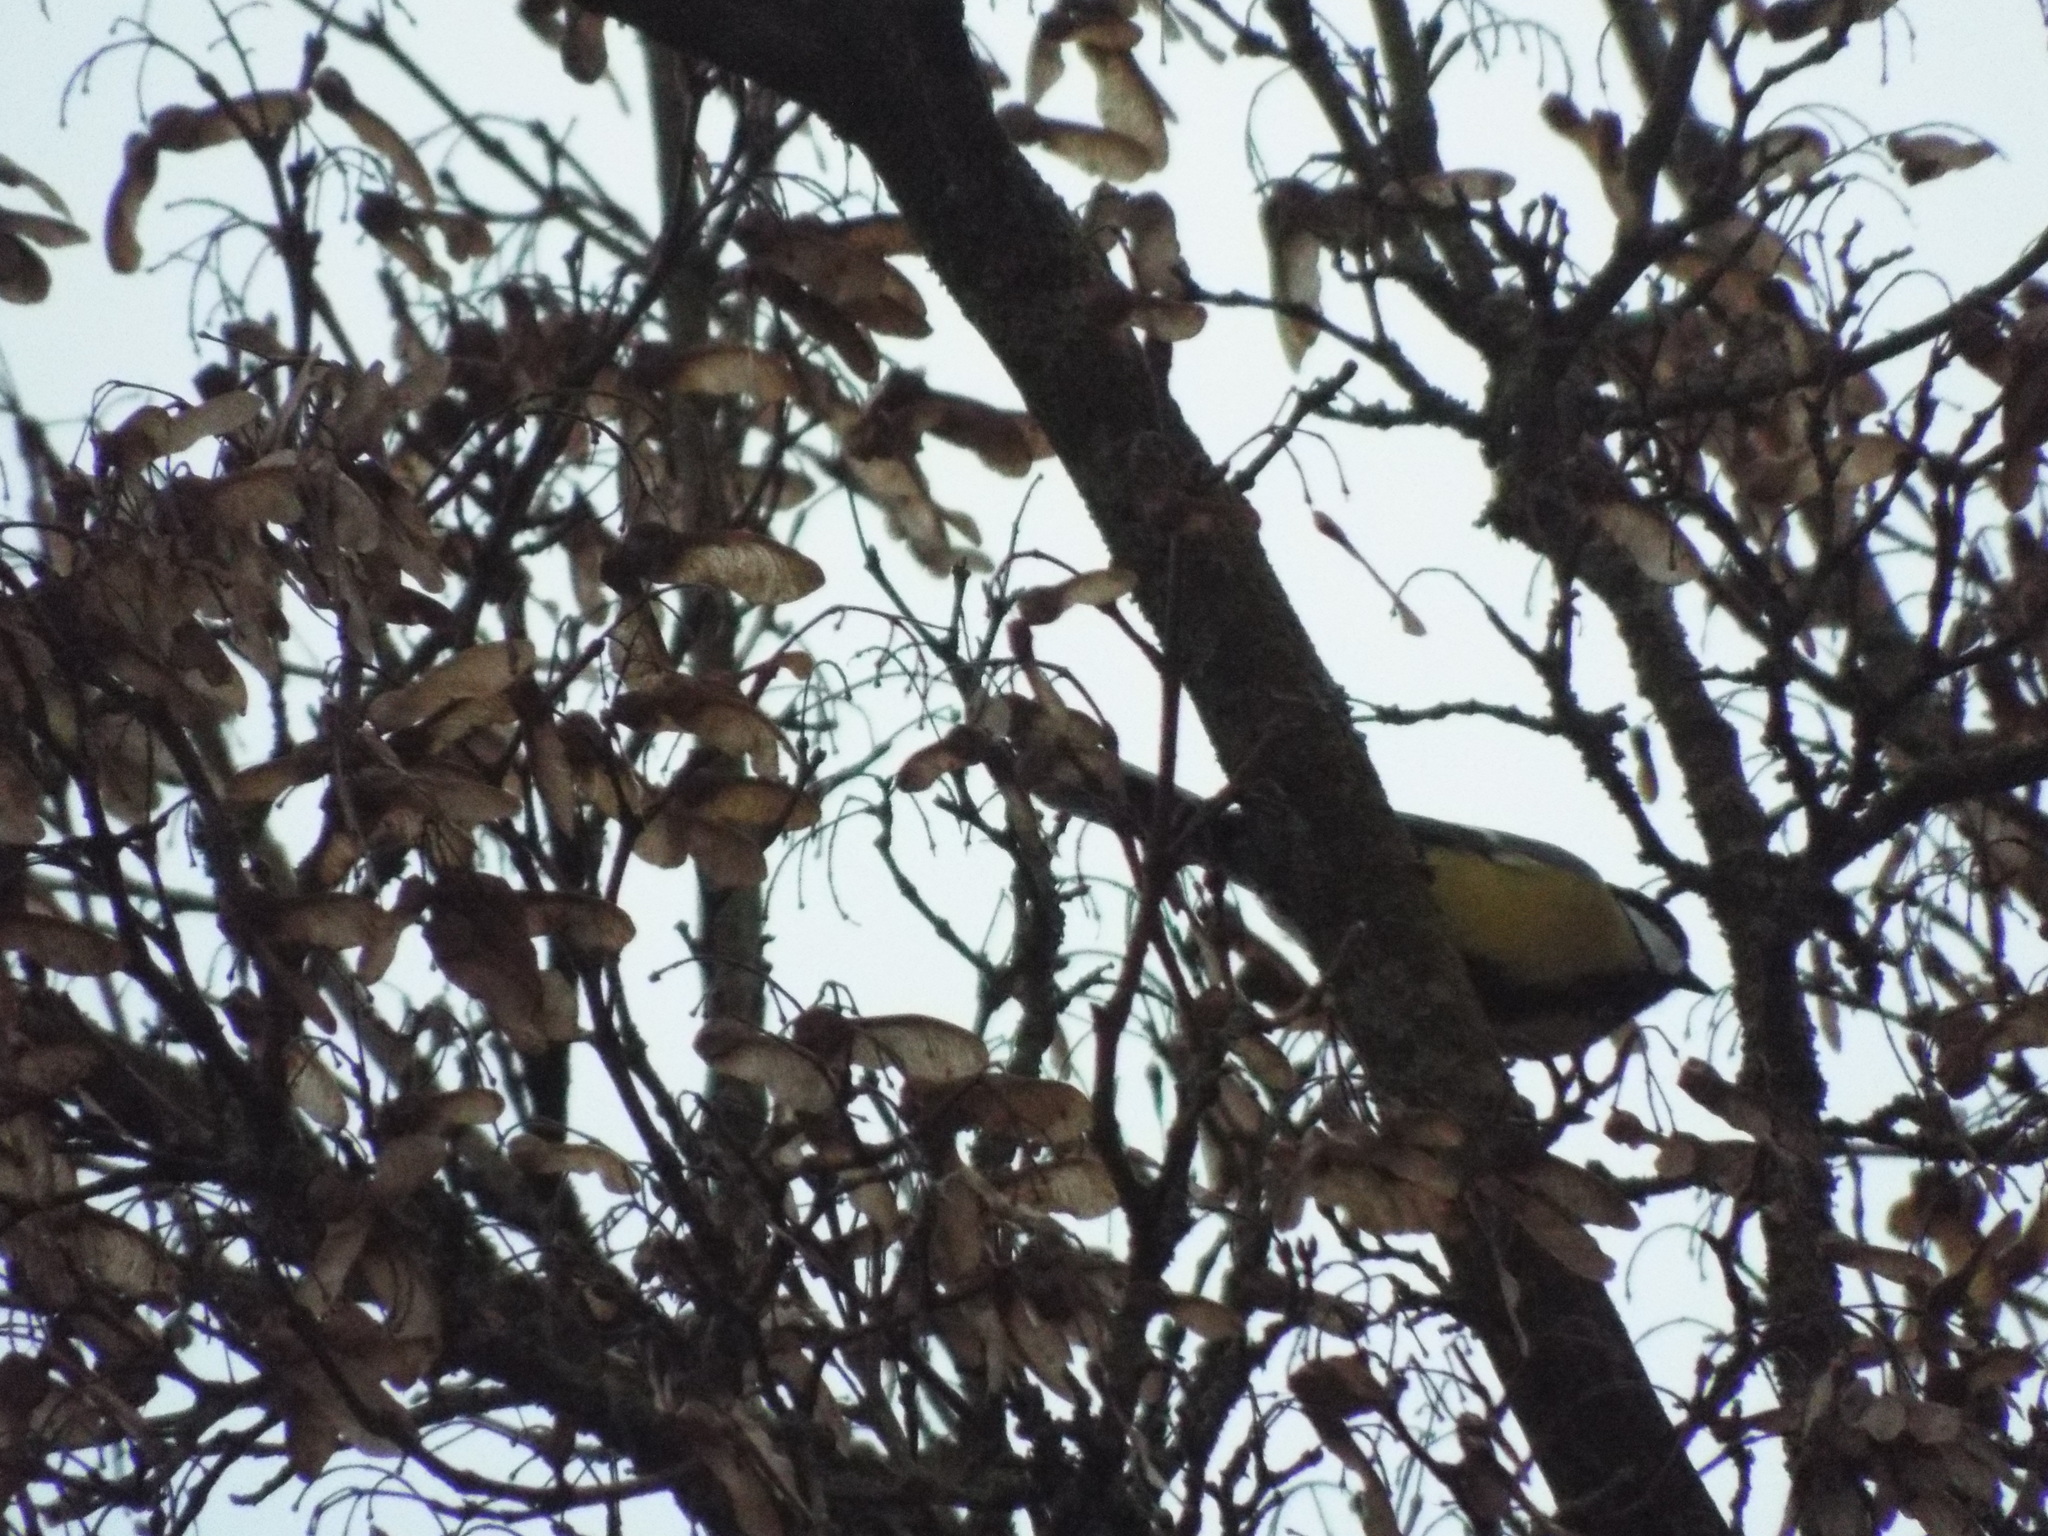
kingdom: Animalia
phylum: Chordata
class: Aves
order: Passeriformes
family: Paridae
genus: Parus
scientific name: Parus major
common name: Great tit
